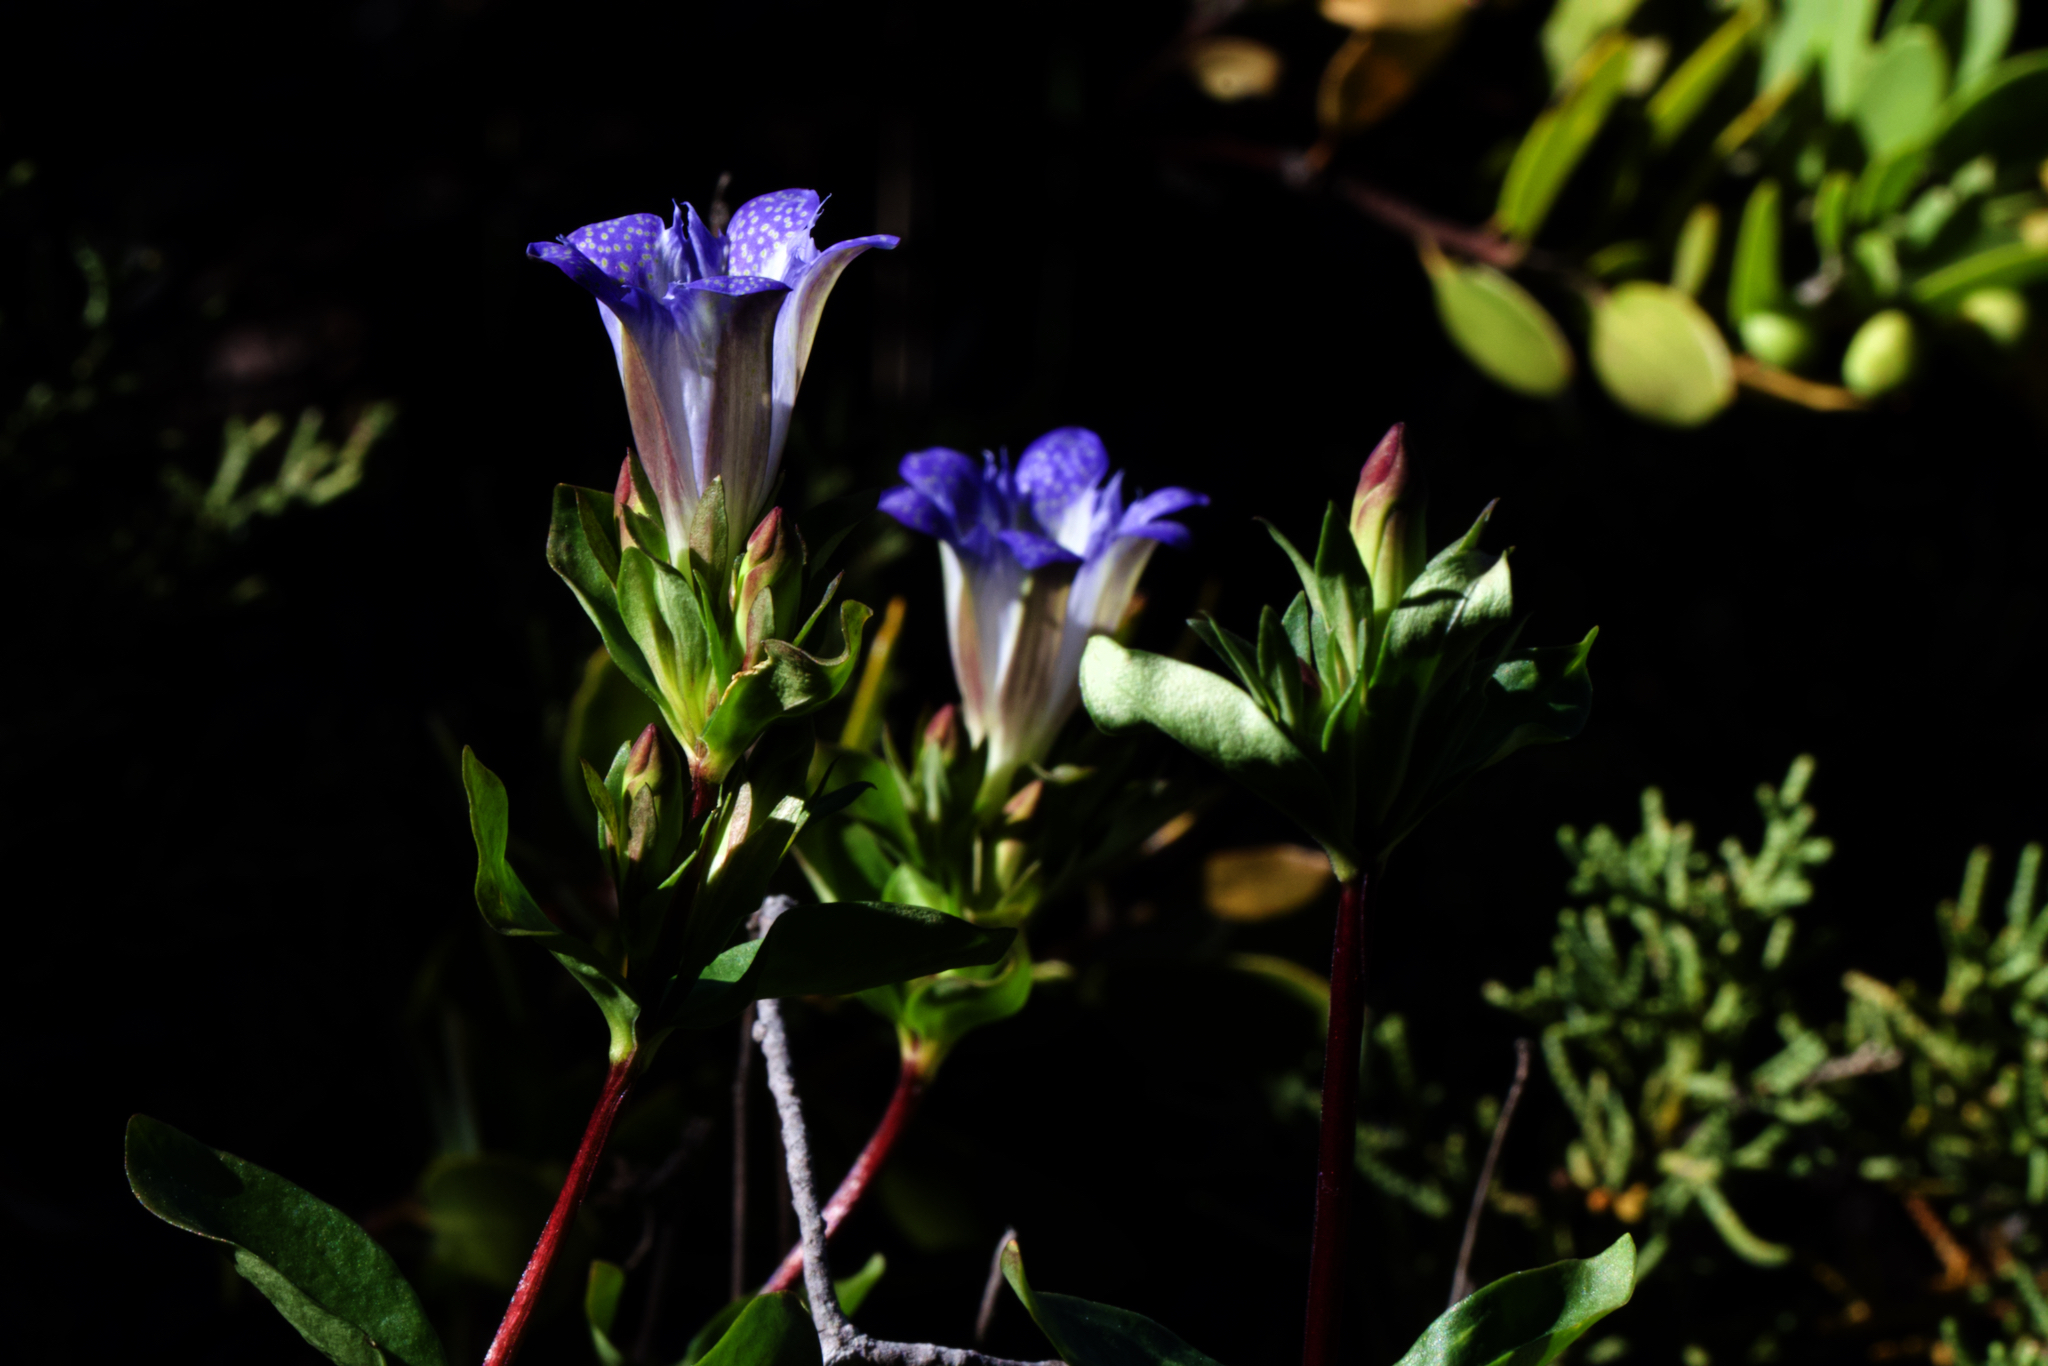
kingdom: Plantae
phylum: Tracheophyta
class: Magnoliopsida
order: Gentianales
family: Gentianaceae
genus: Gentiana
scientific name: Gentiana affinis
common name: Rocky mountain gentian
